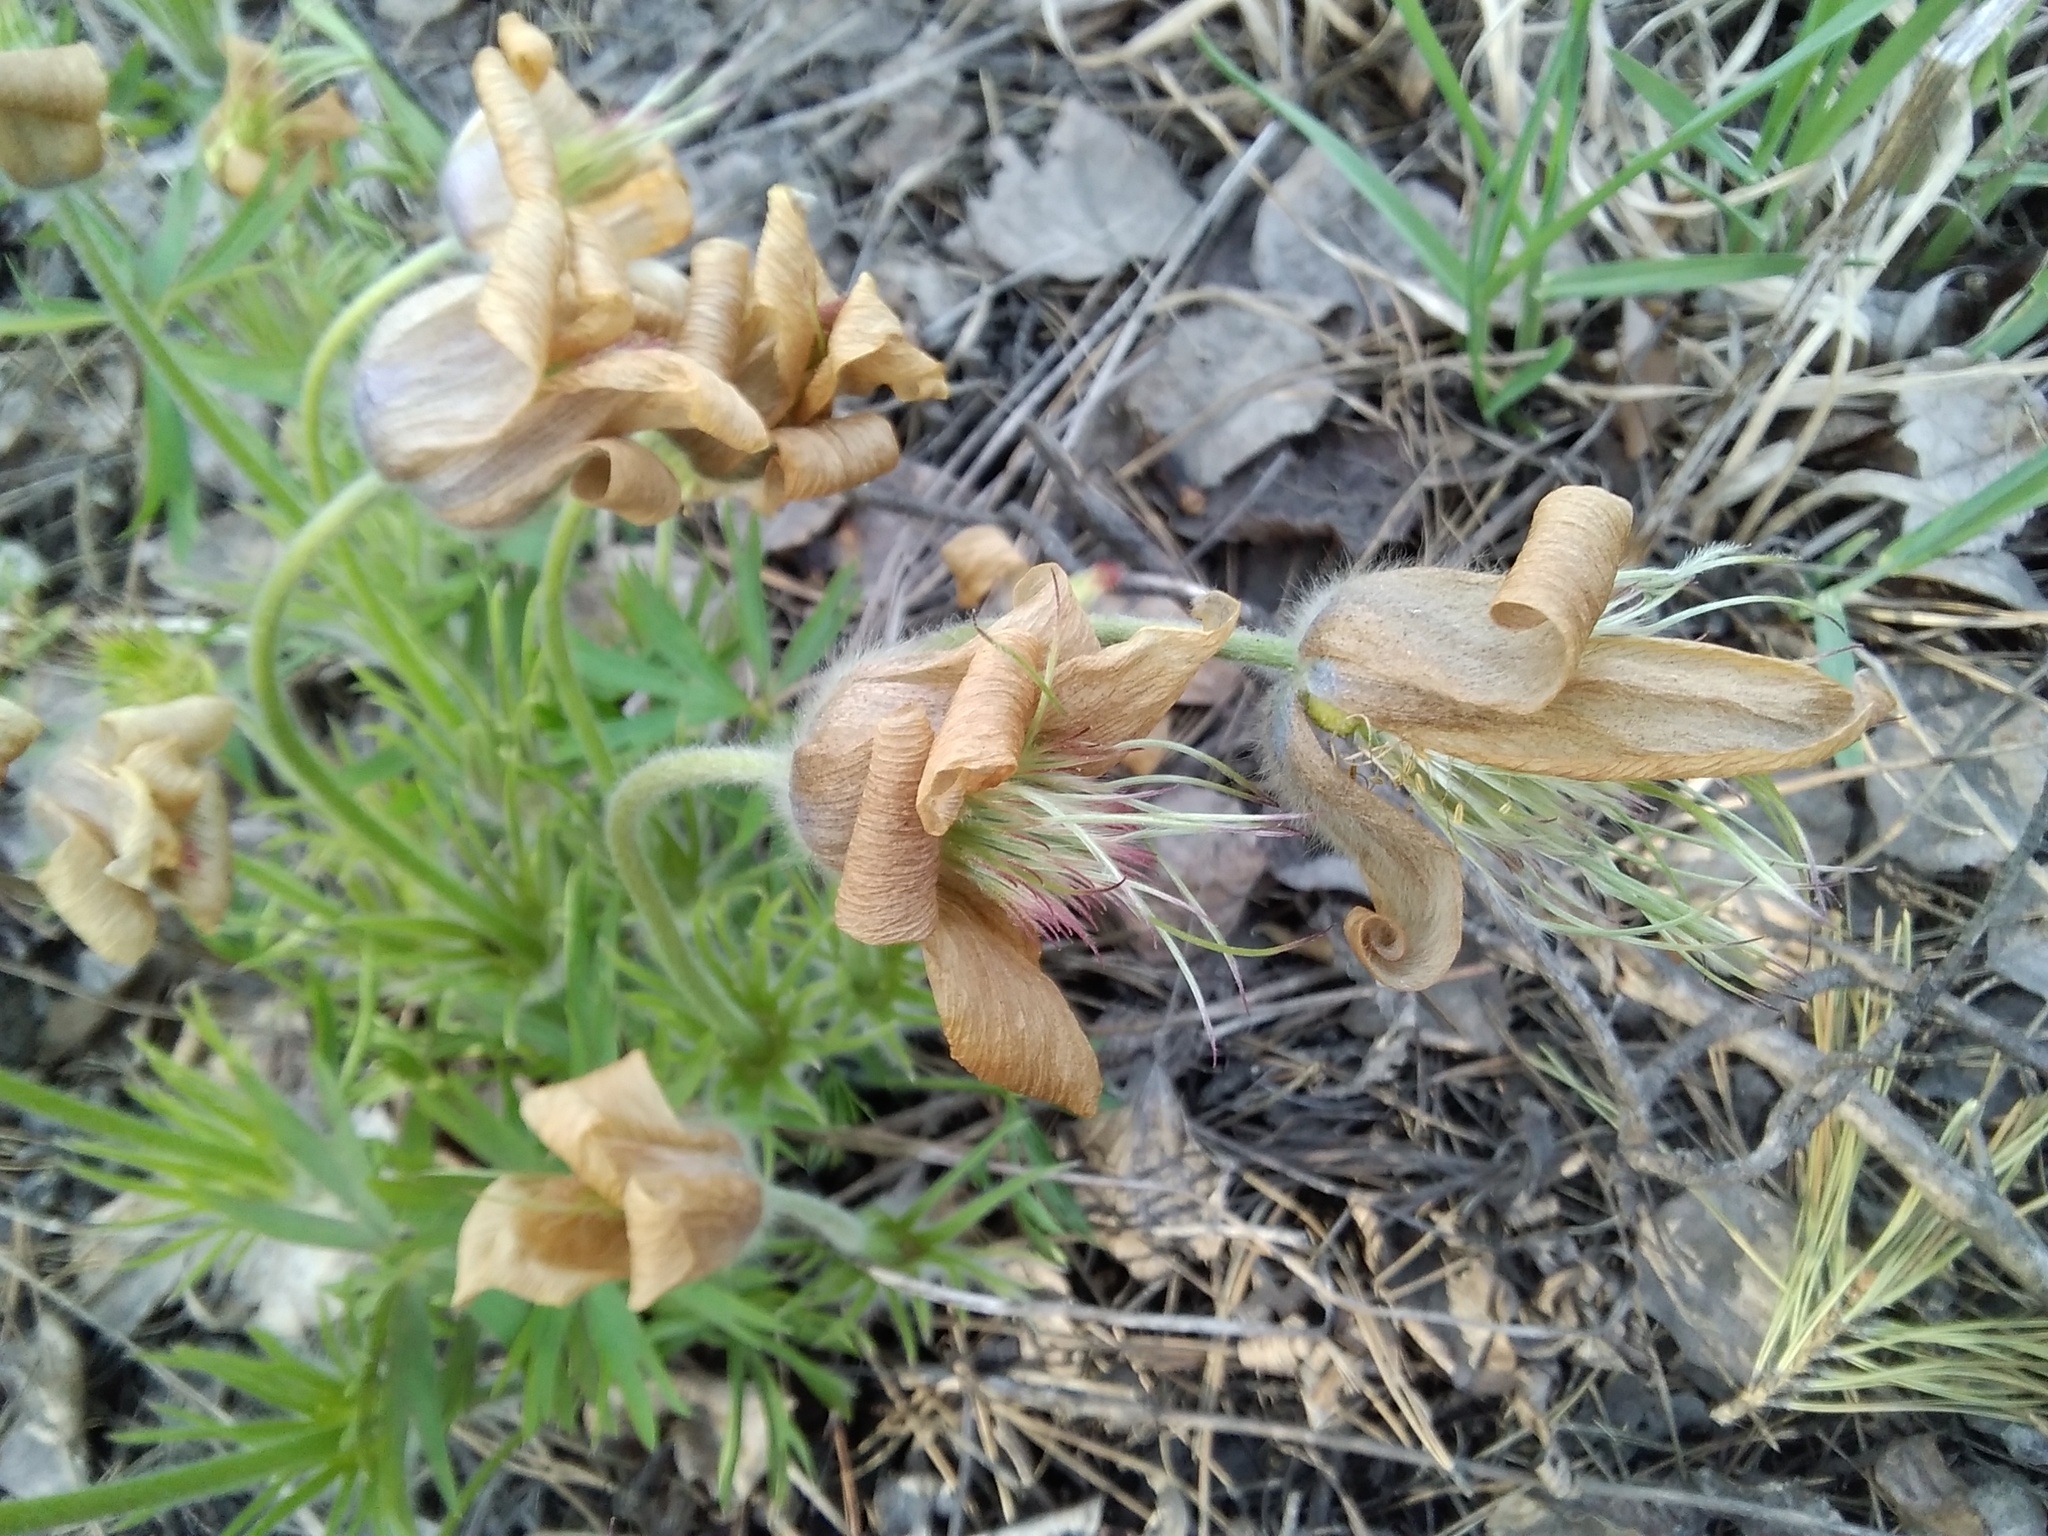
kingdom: Plantae
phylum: Tracheophyta
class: Magnoliopsida
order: Ranunculales
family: Ranunculaceae
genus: Pulsatilla
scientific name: Pulsatilla patens
